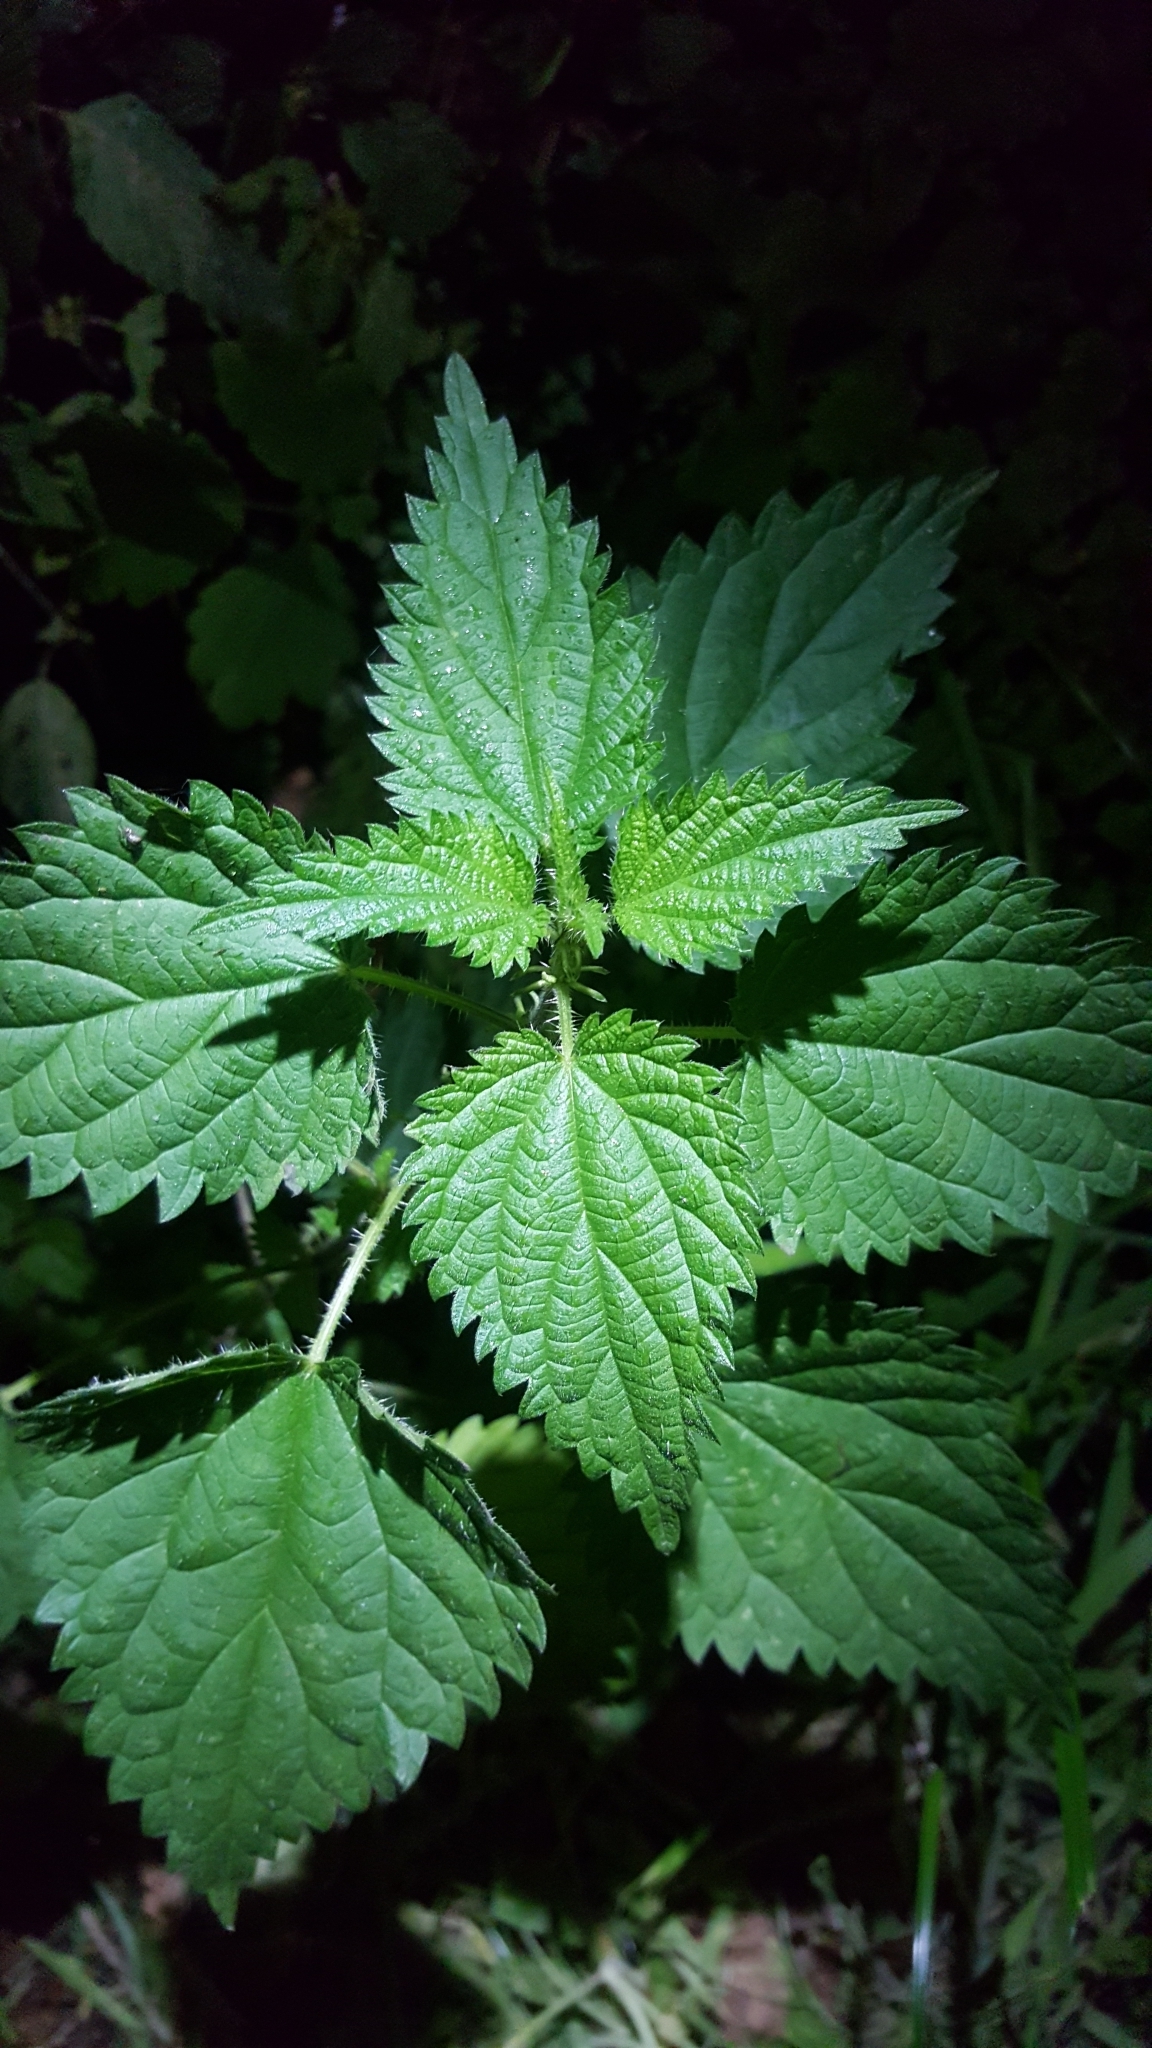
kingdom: Plantae
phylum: Tracheophyta
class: Magnoliopsida
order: Rosales
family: Urticaceae
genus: Urtica
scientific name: Urtica dioica
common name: Common nettle
